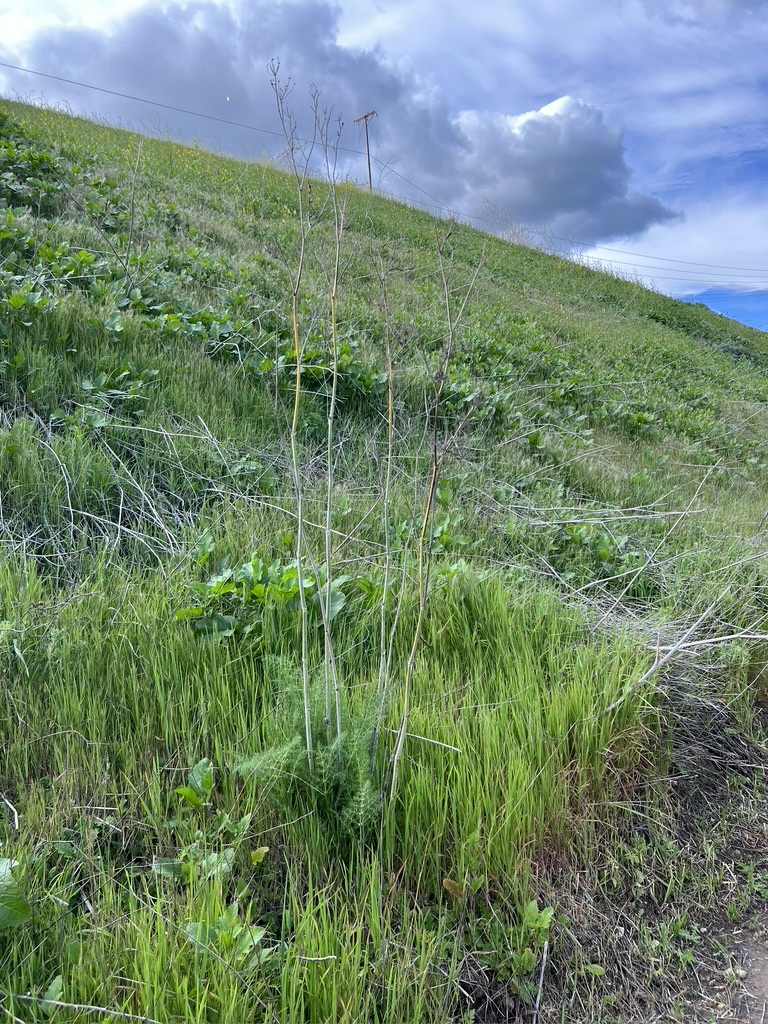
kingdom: Plantae
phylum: Tracheophyta
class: Magnoliopsida
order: Apiales
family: Apiaceae
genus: Foeniculum
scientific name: Foeniculum vulgare
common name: Fennel
